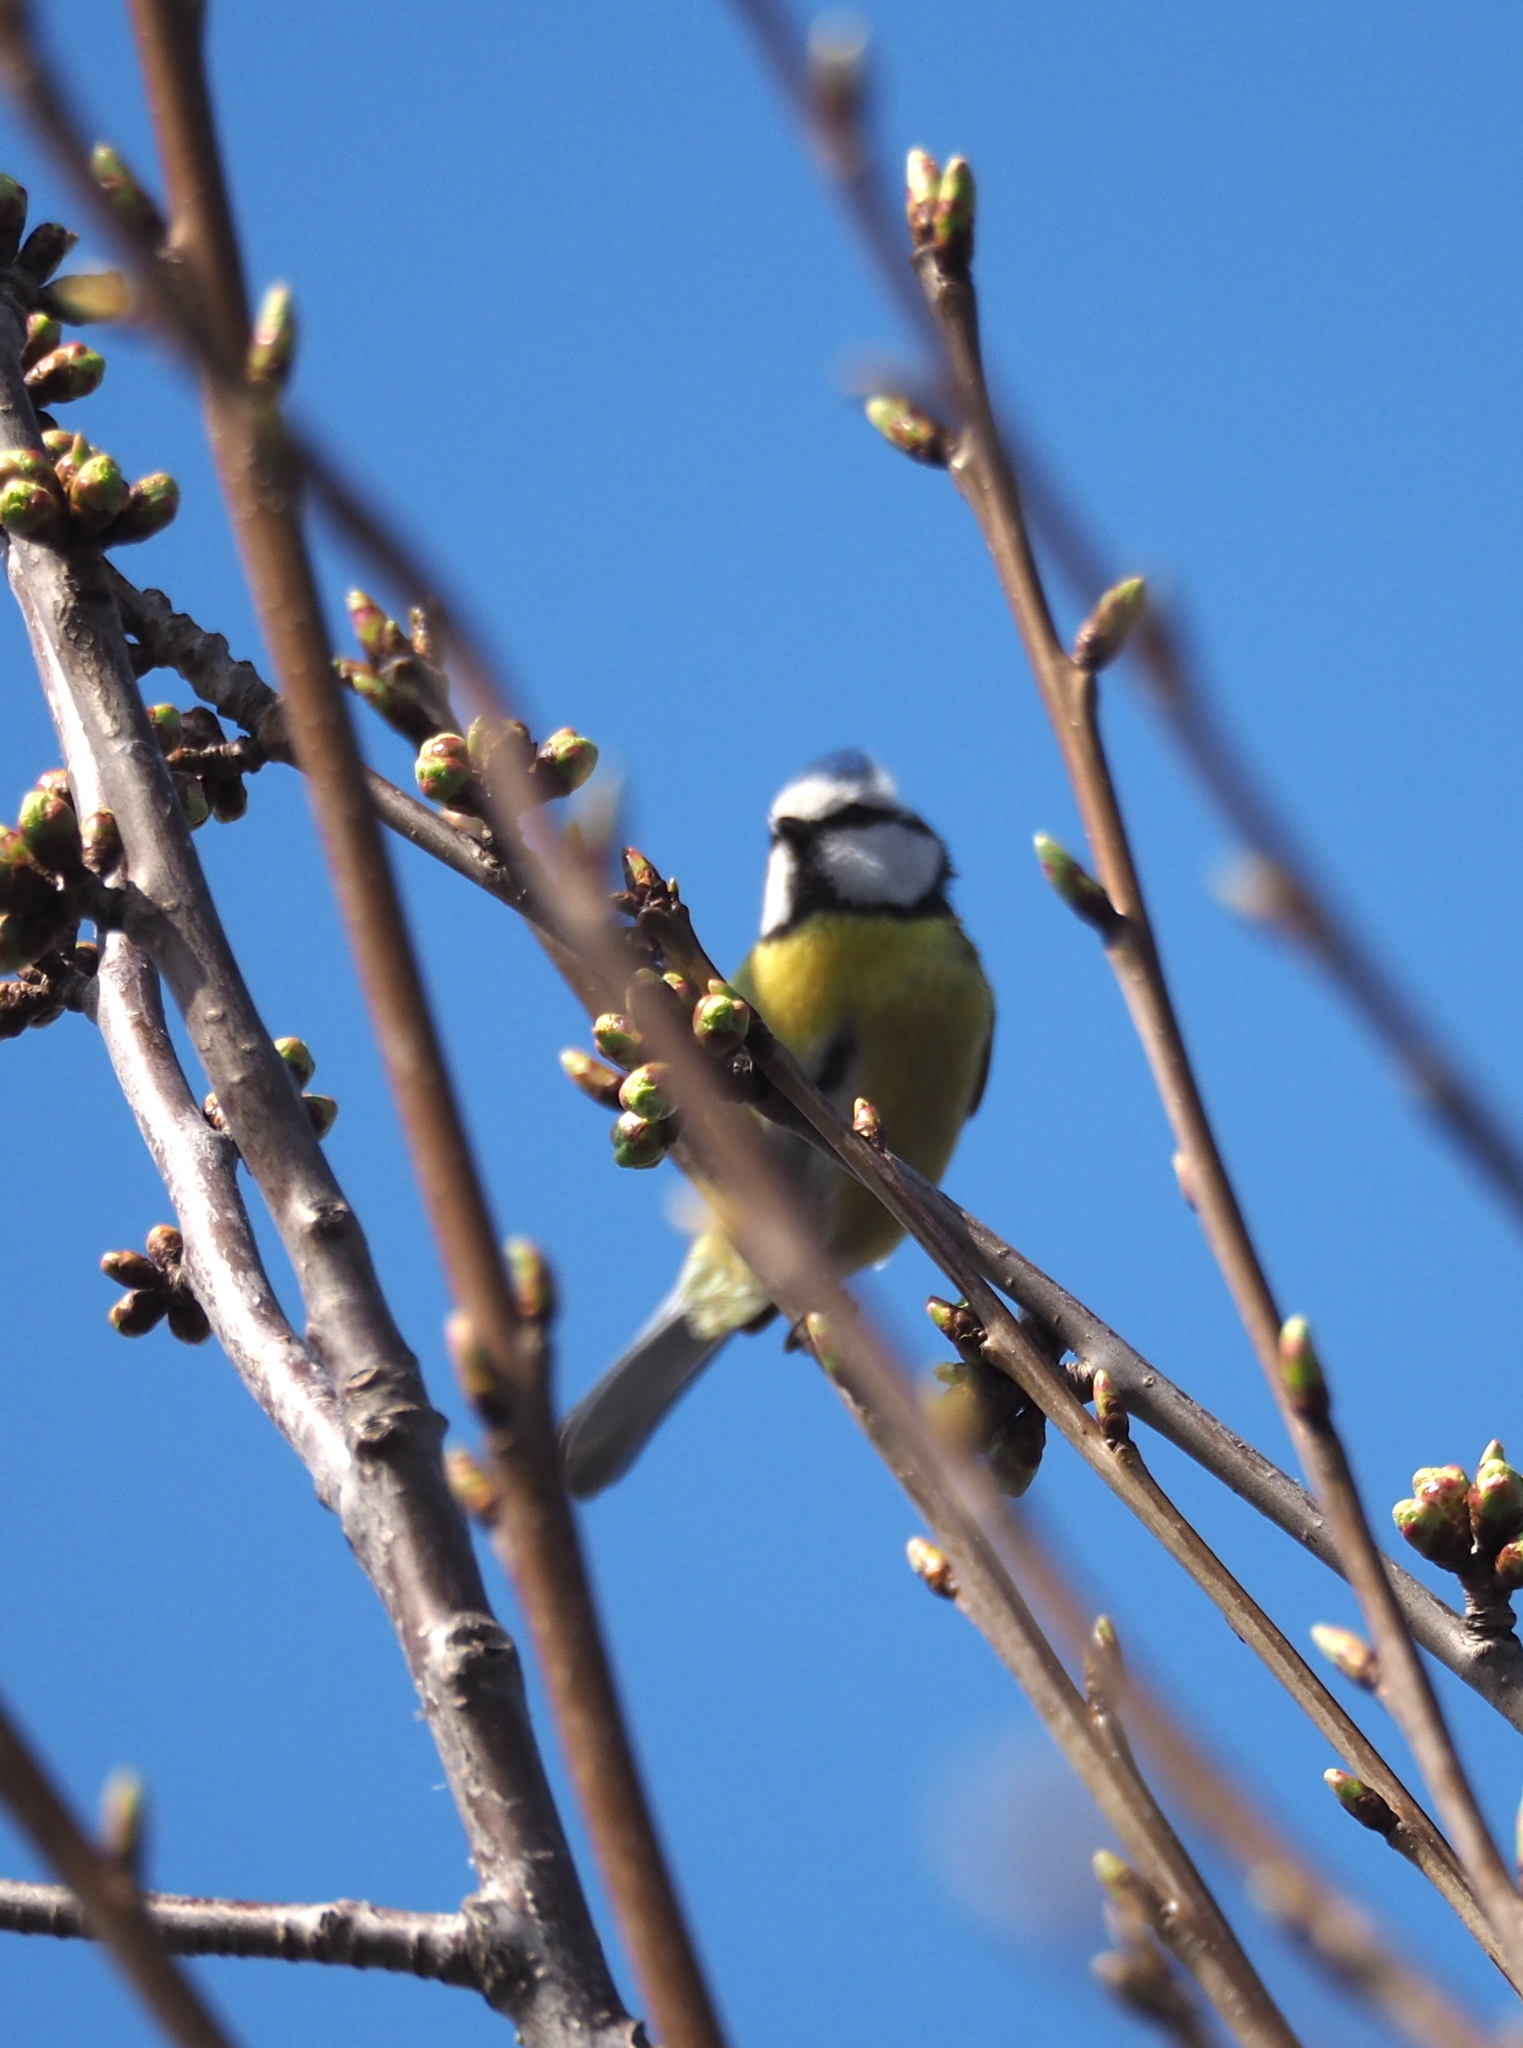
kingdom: Animalia
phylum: Chordata
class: Aves
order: Passeriformes
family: Paridae
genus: Cyanistes
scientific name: Cyanistes caeruleus
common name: Eurasian blue tit
